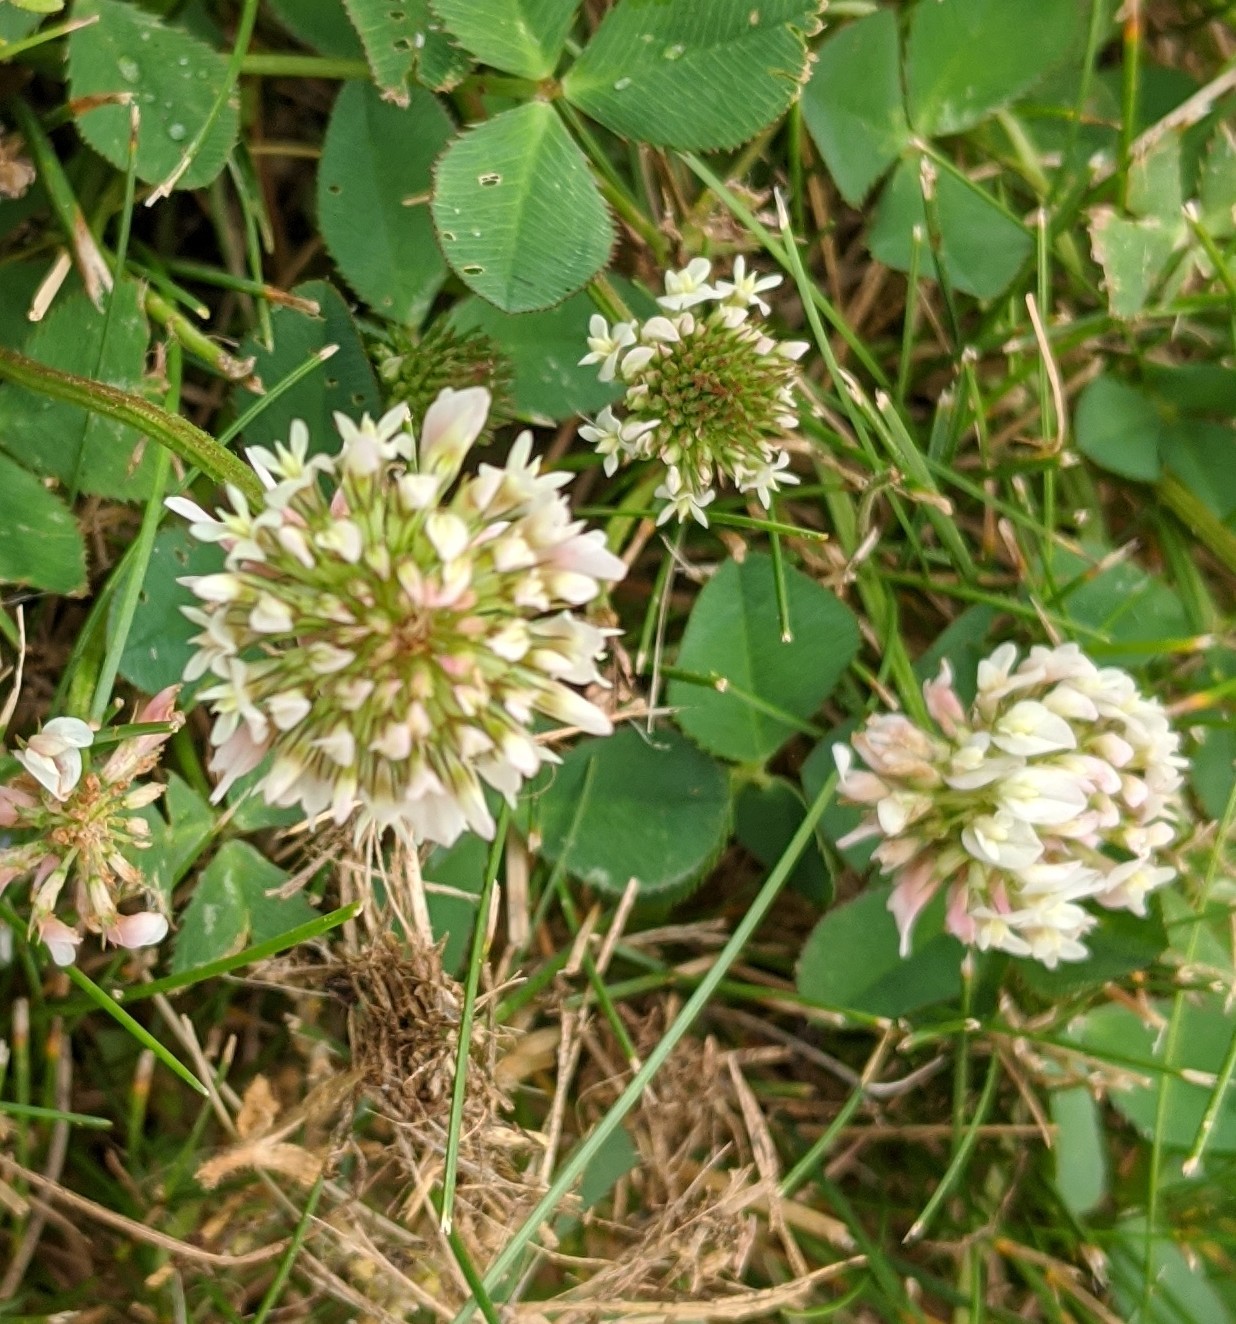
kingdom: Plantae
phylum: Tracheophyta
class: Magnoliopsida
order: Fabales
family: Fabaceae
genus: Trifolium
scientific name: Trifolium repens
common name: White clover
